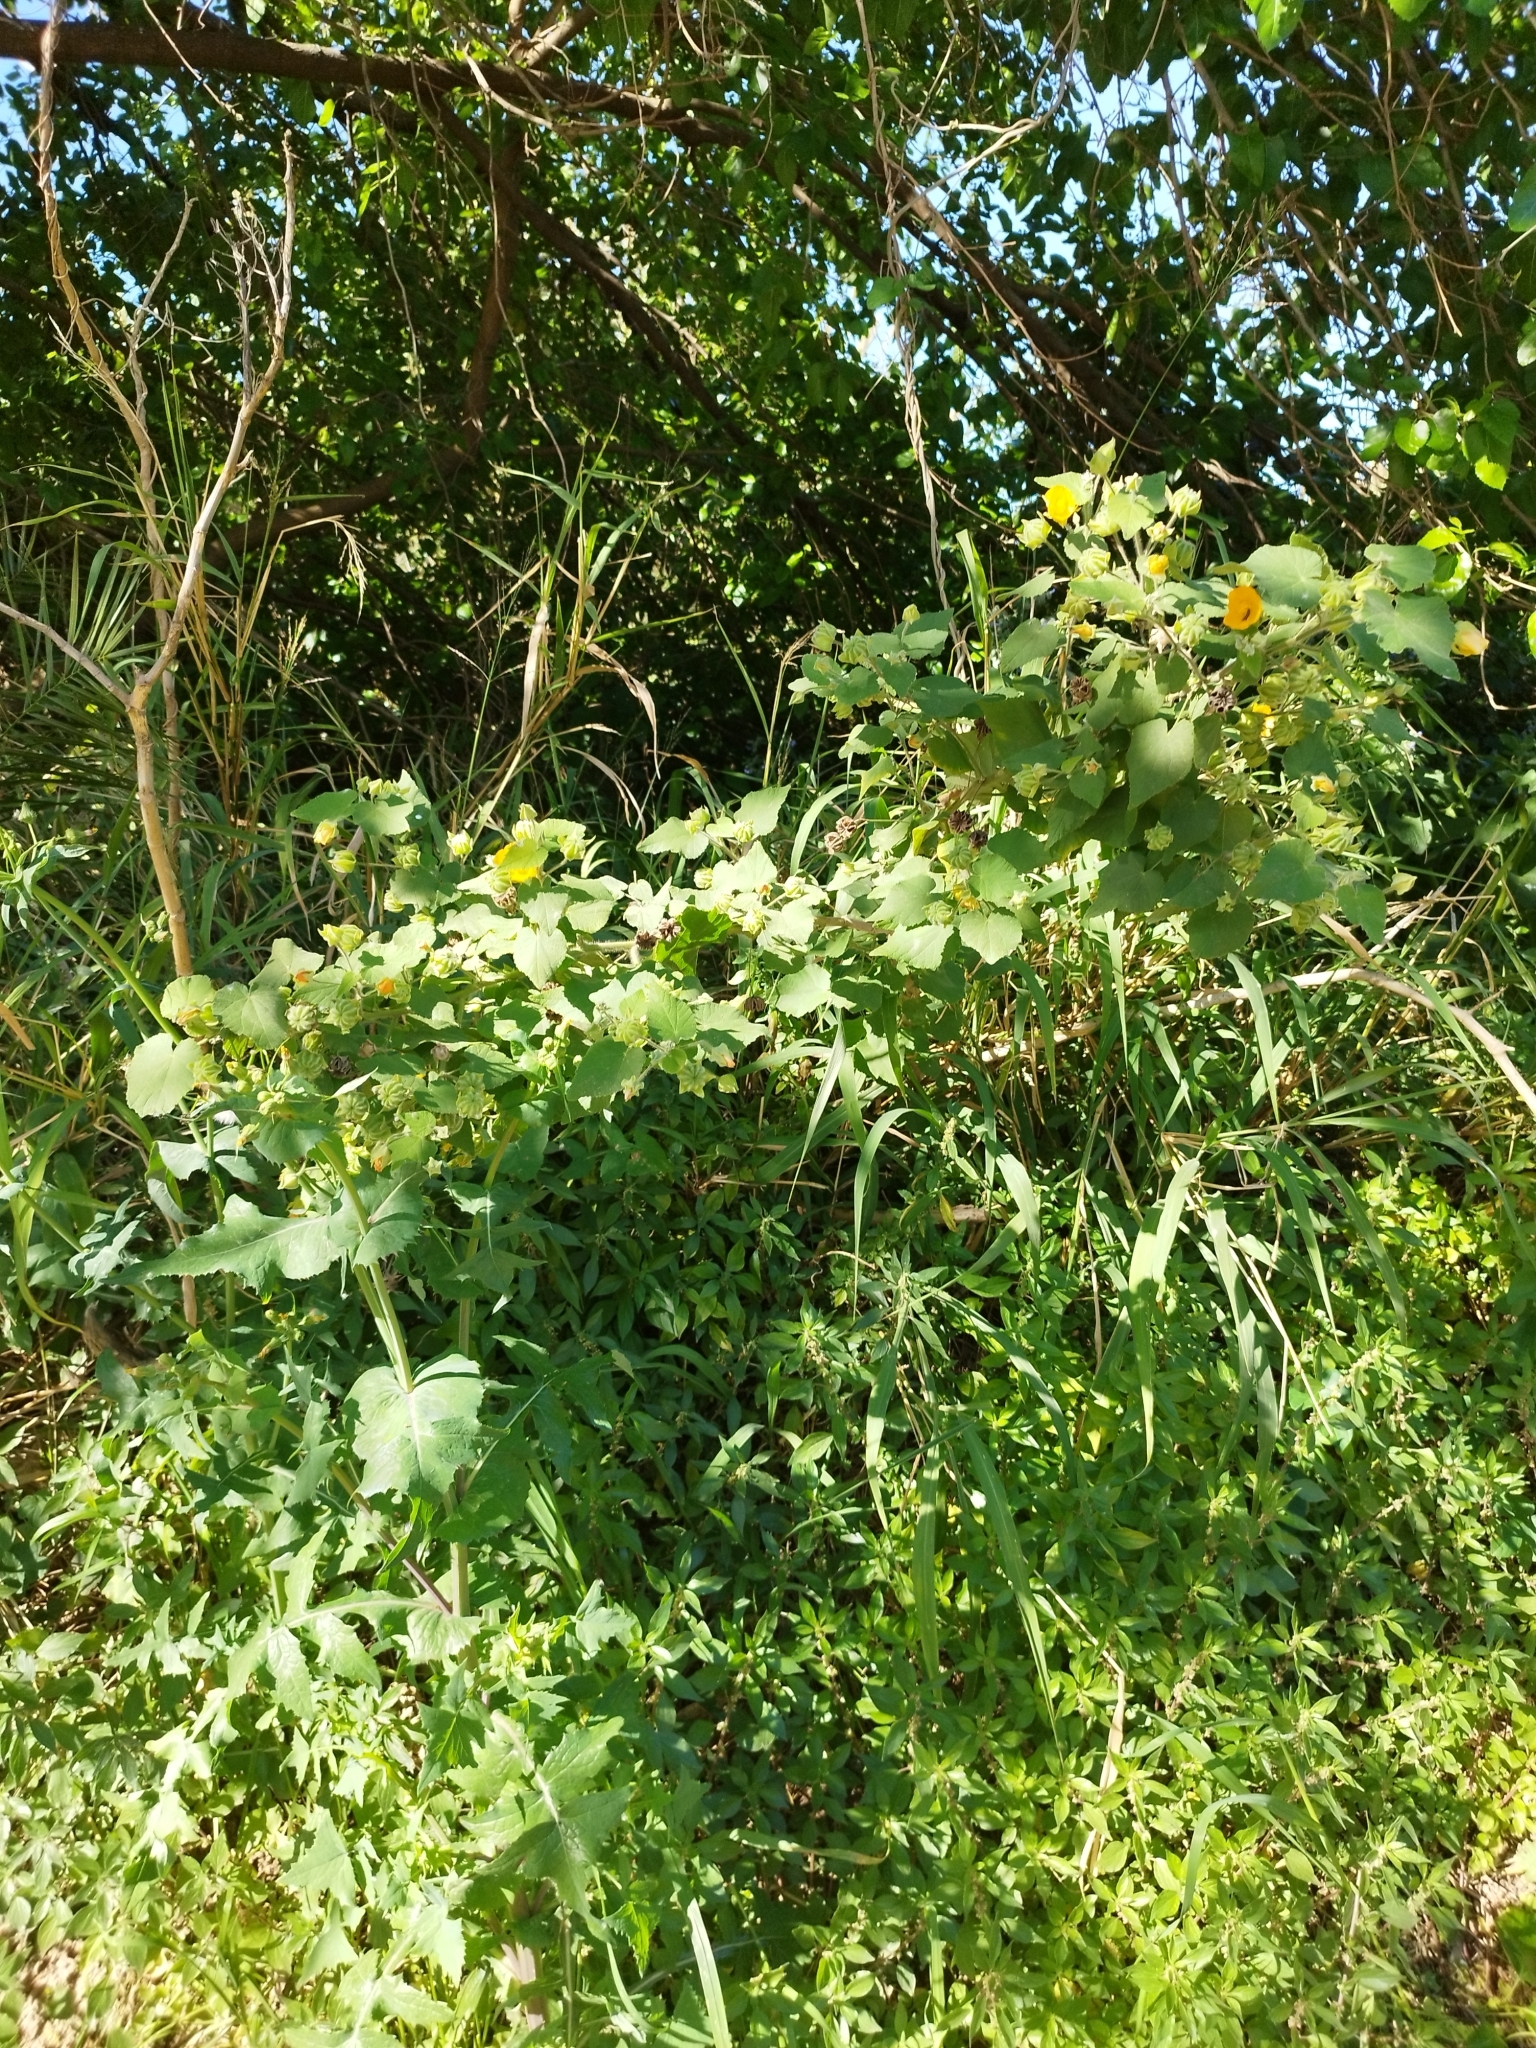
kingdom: Plantae
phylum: Tracheophyta
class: Magnoliopsida
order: Malvales
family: Malvaceae
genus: Abutilon
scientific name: Abutilon grandifolium
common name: Hairy abutilon
